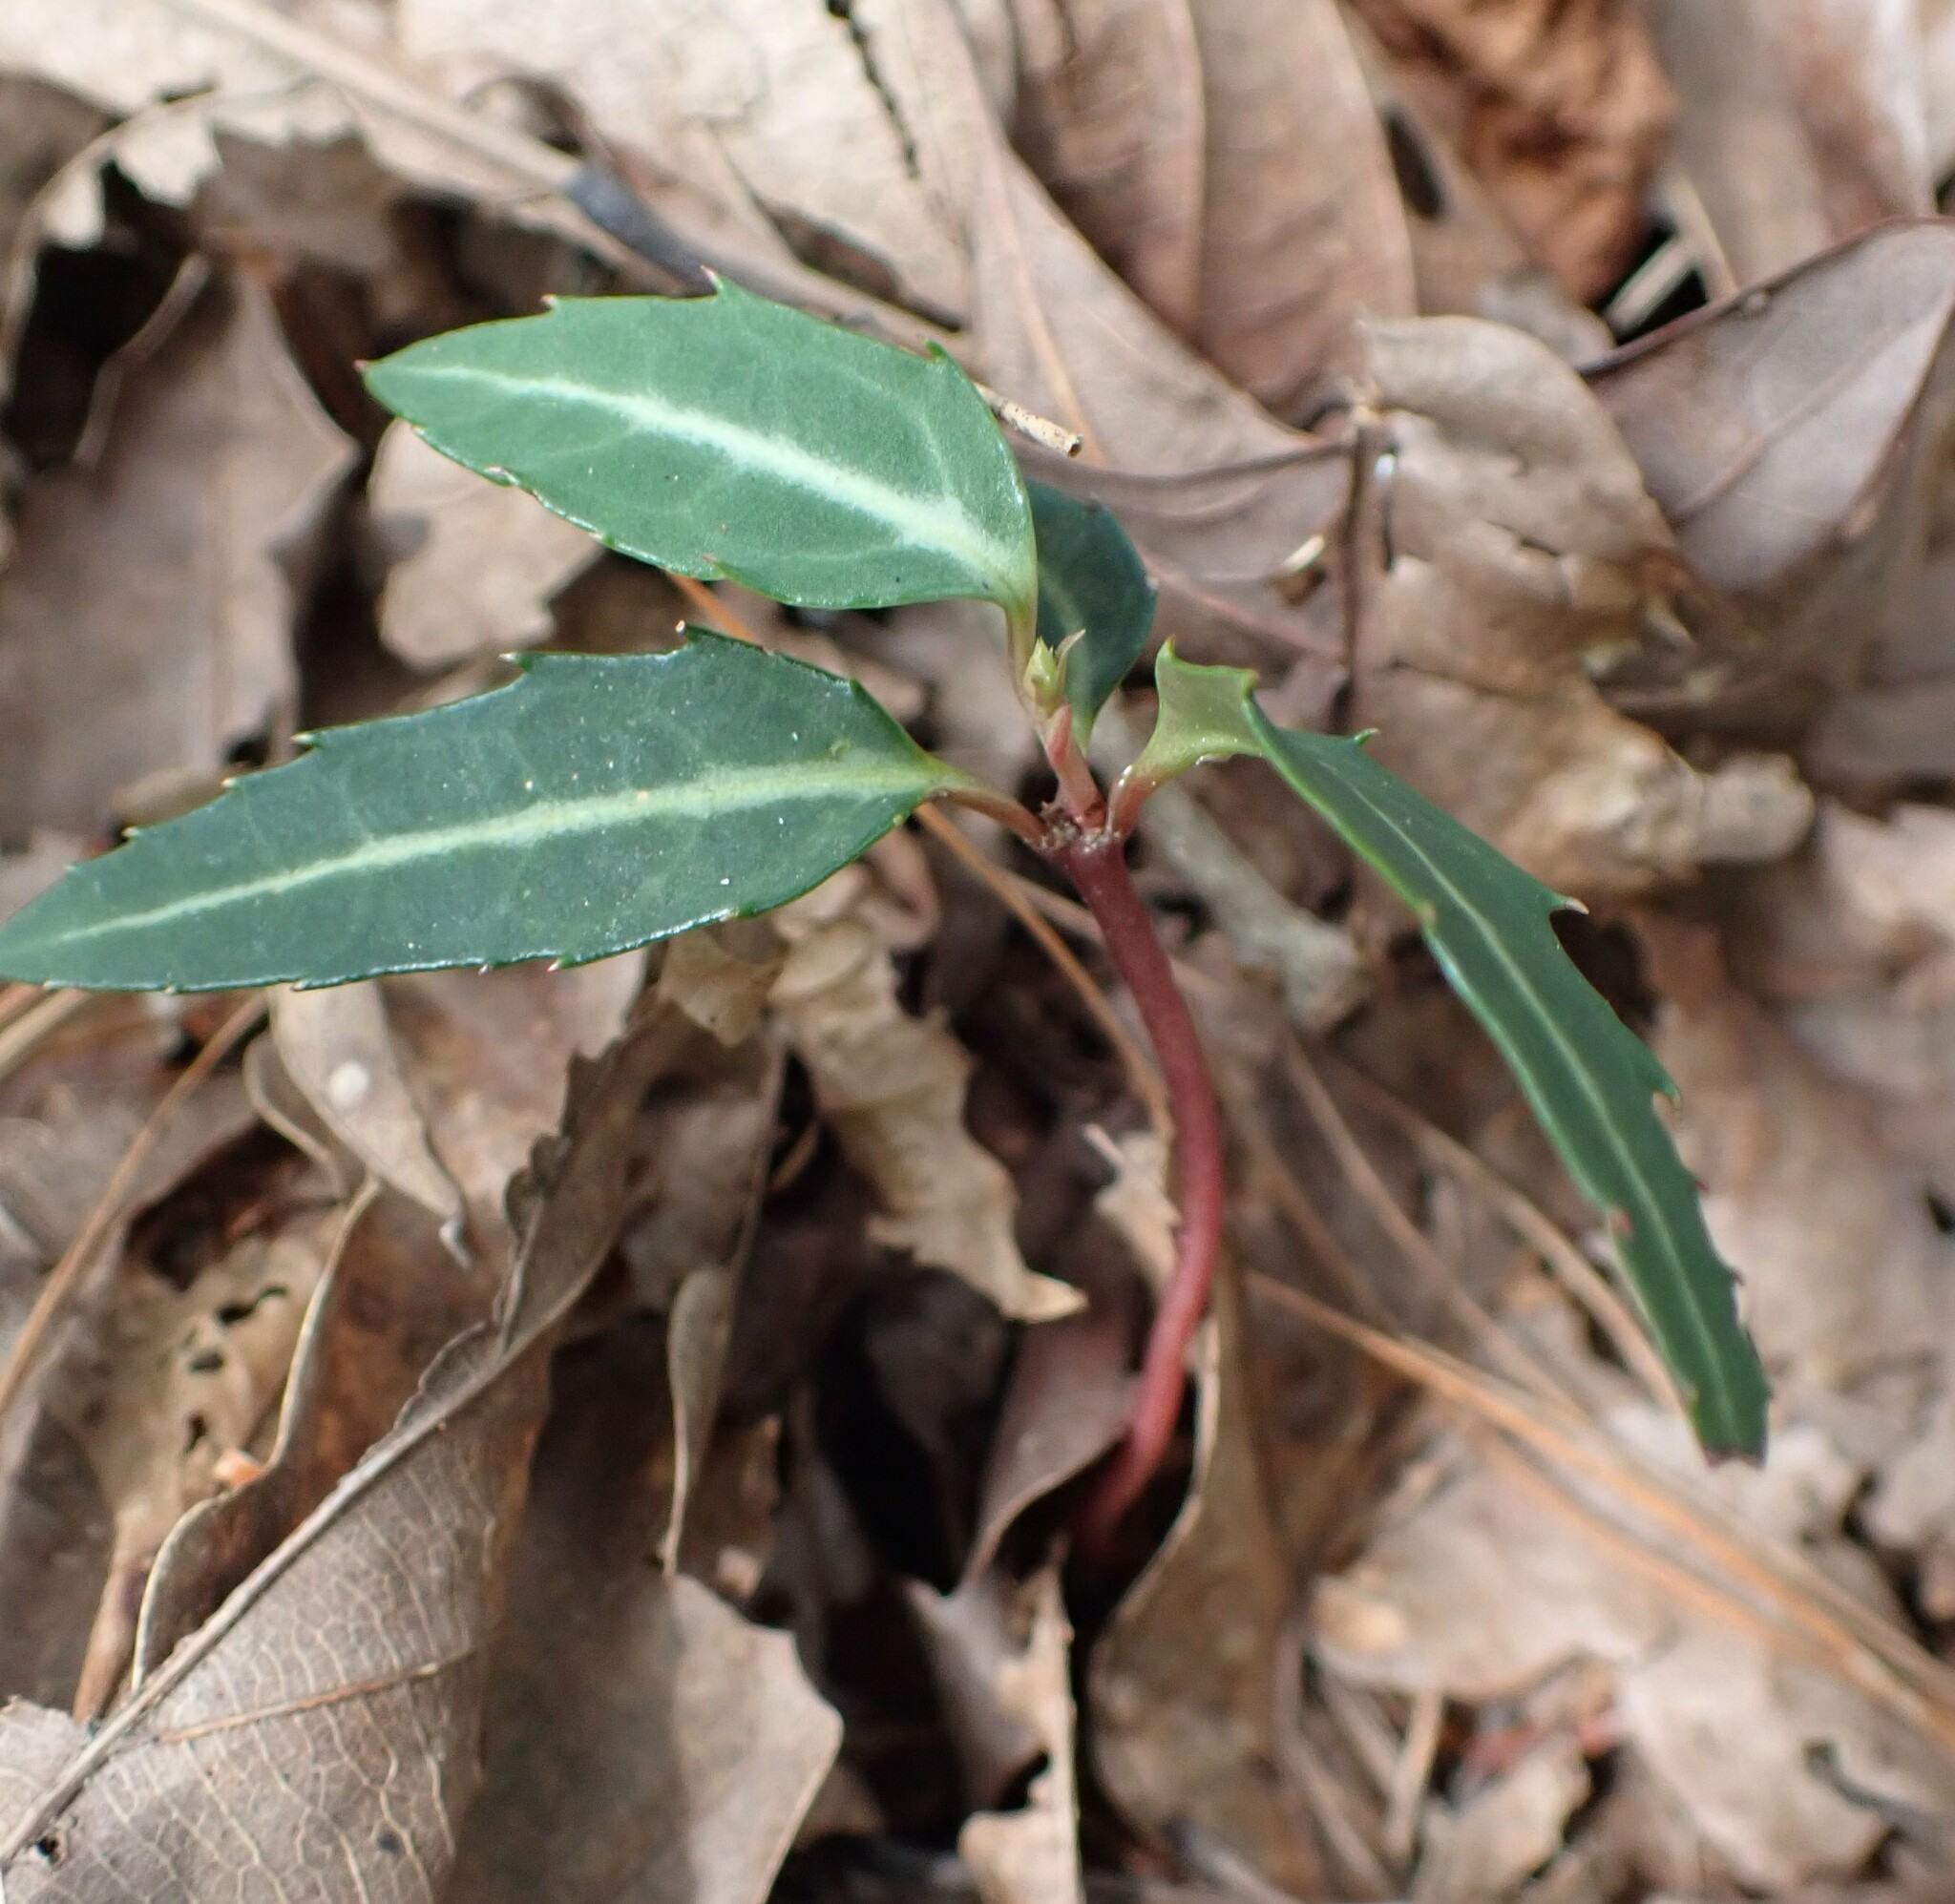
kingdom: Plantae
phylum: Tracheophyta
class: Magnoliopsida
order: Ericales
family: Ericaceae
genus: Chimaphila
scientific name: Chimaphila maculata
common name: Spotted pipsissewa
